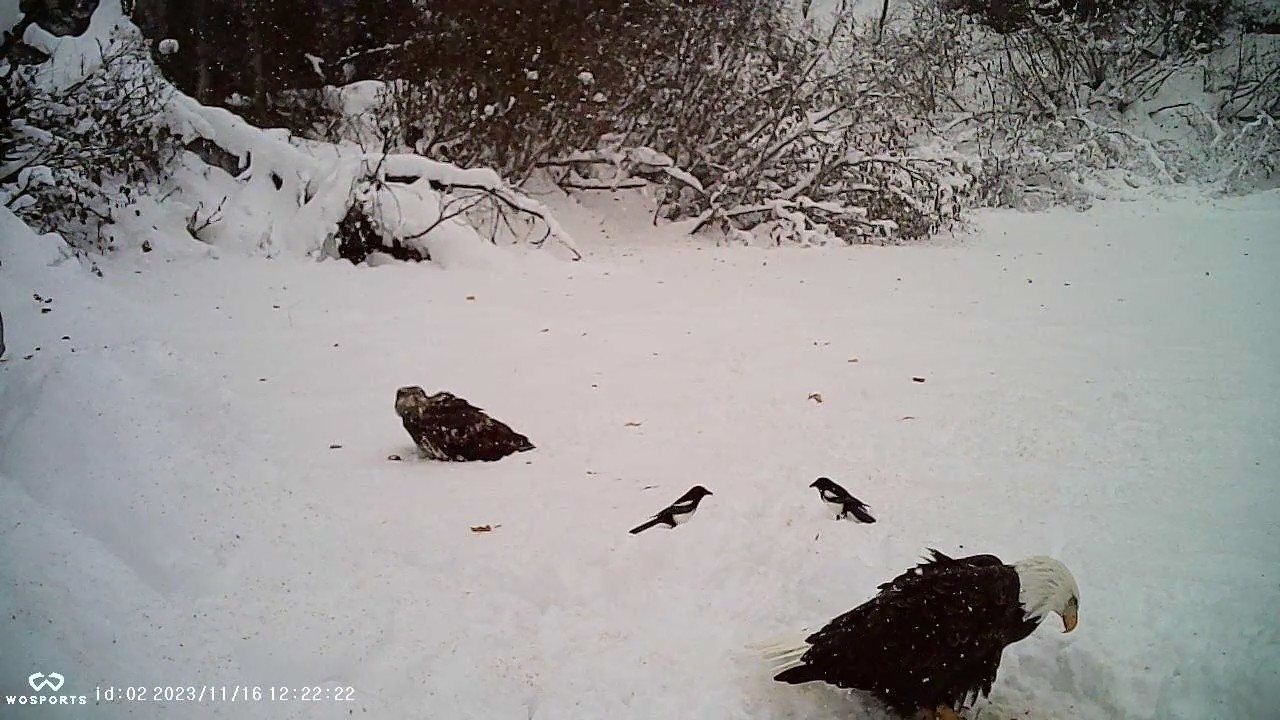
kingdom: Animalia
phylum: Chordata
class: Aves
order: Passeriformes
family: Corvidae
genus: Pica
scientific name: Pica hudsonia
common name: Black-billed magpie
